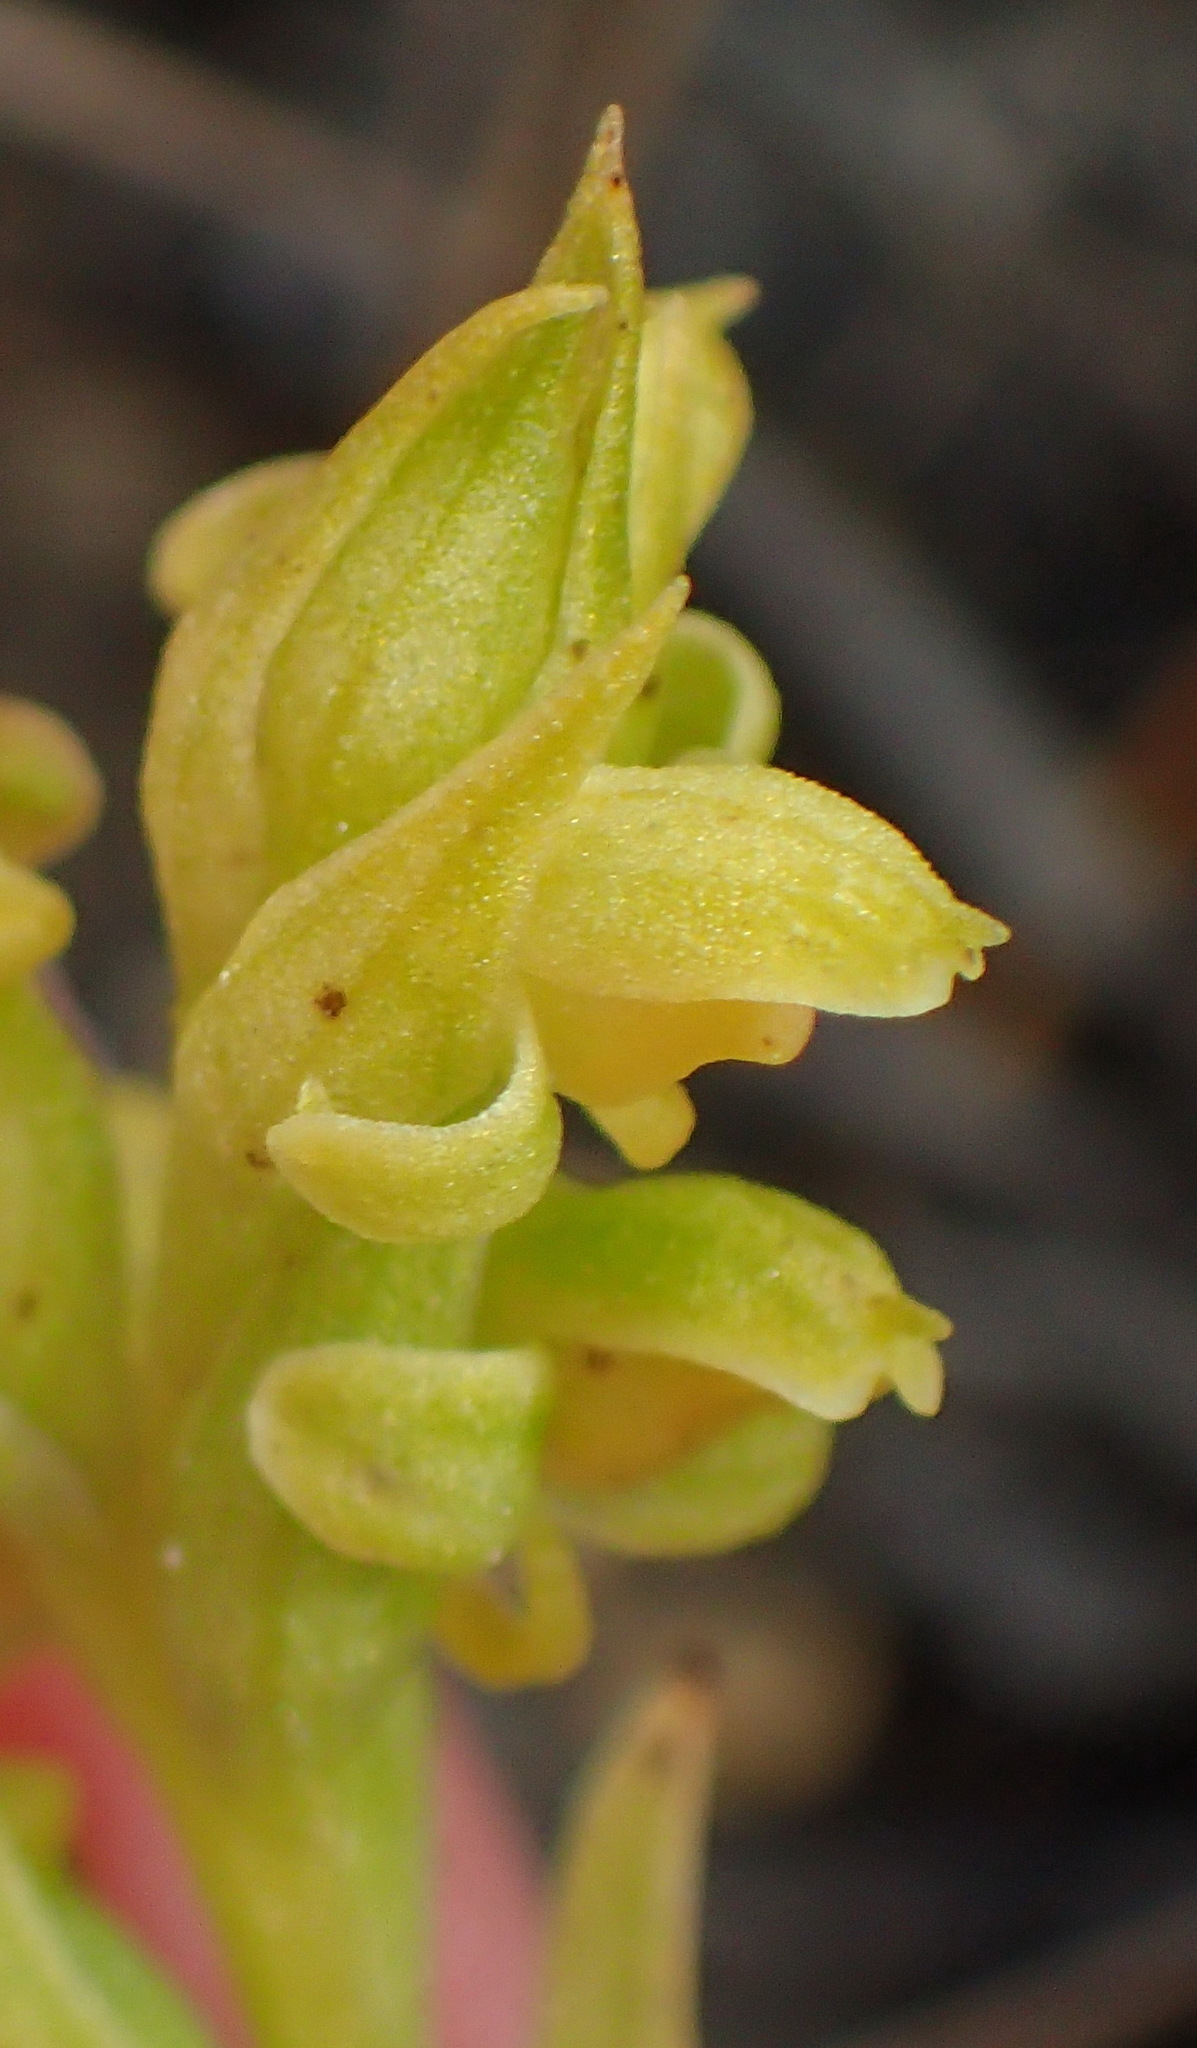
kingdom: Plantae
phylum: Tracheophyta
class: Liliopsida
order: Asparagales
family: Orchidaceae
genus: Disa
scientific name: Disa cylindrica
